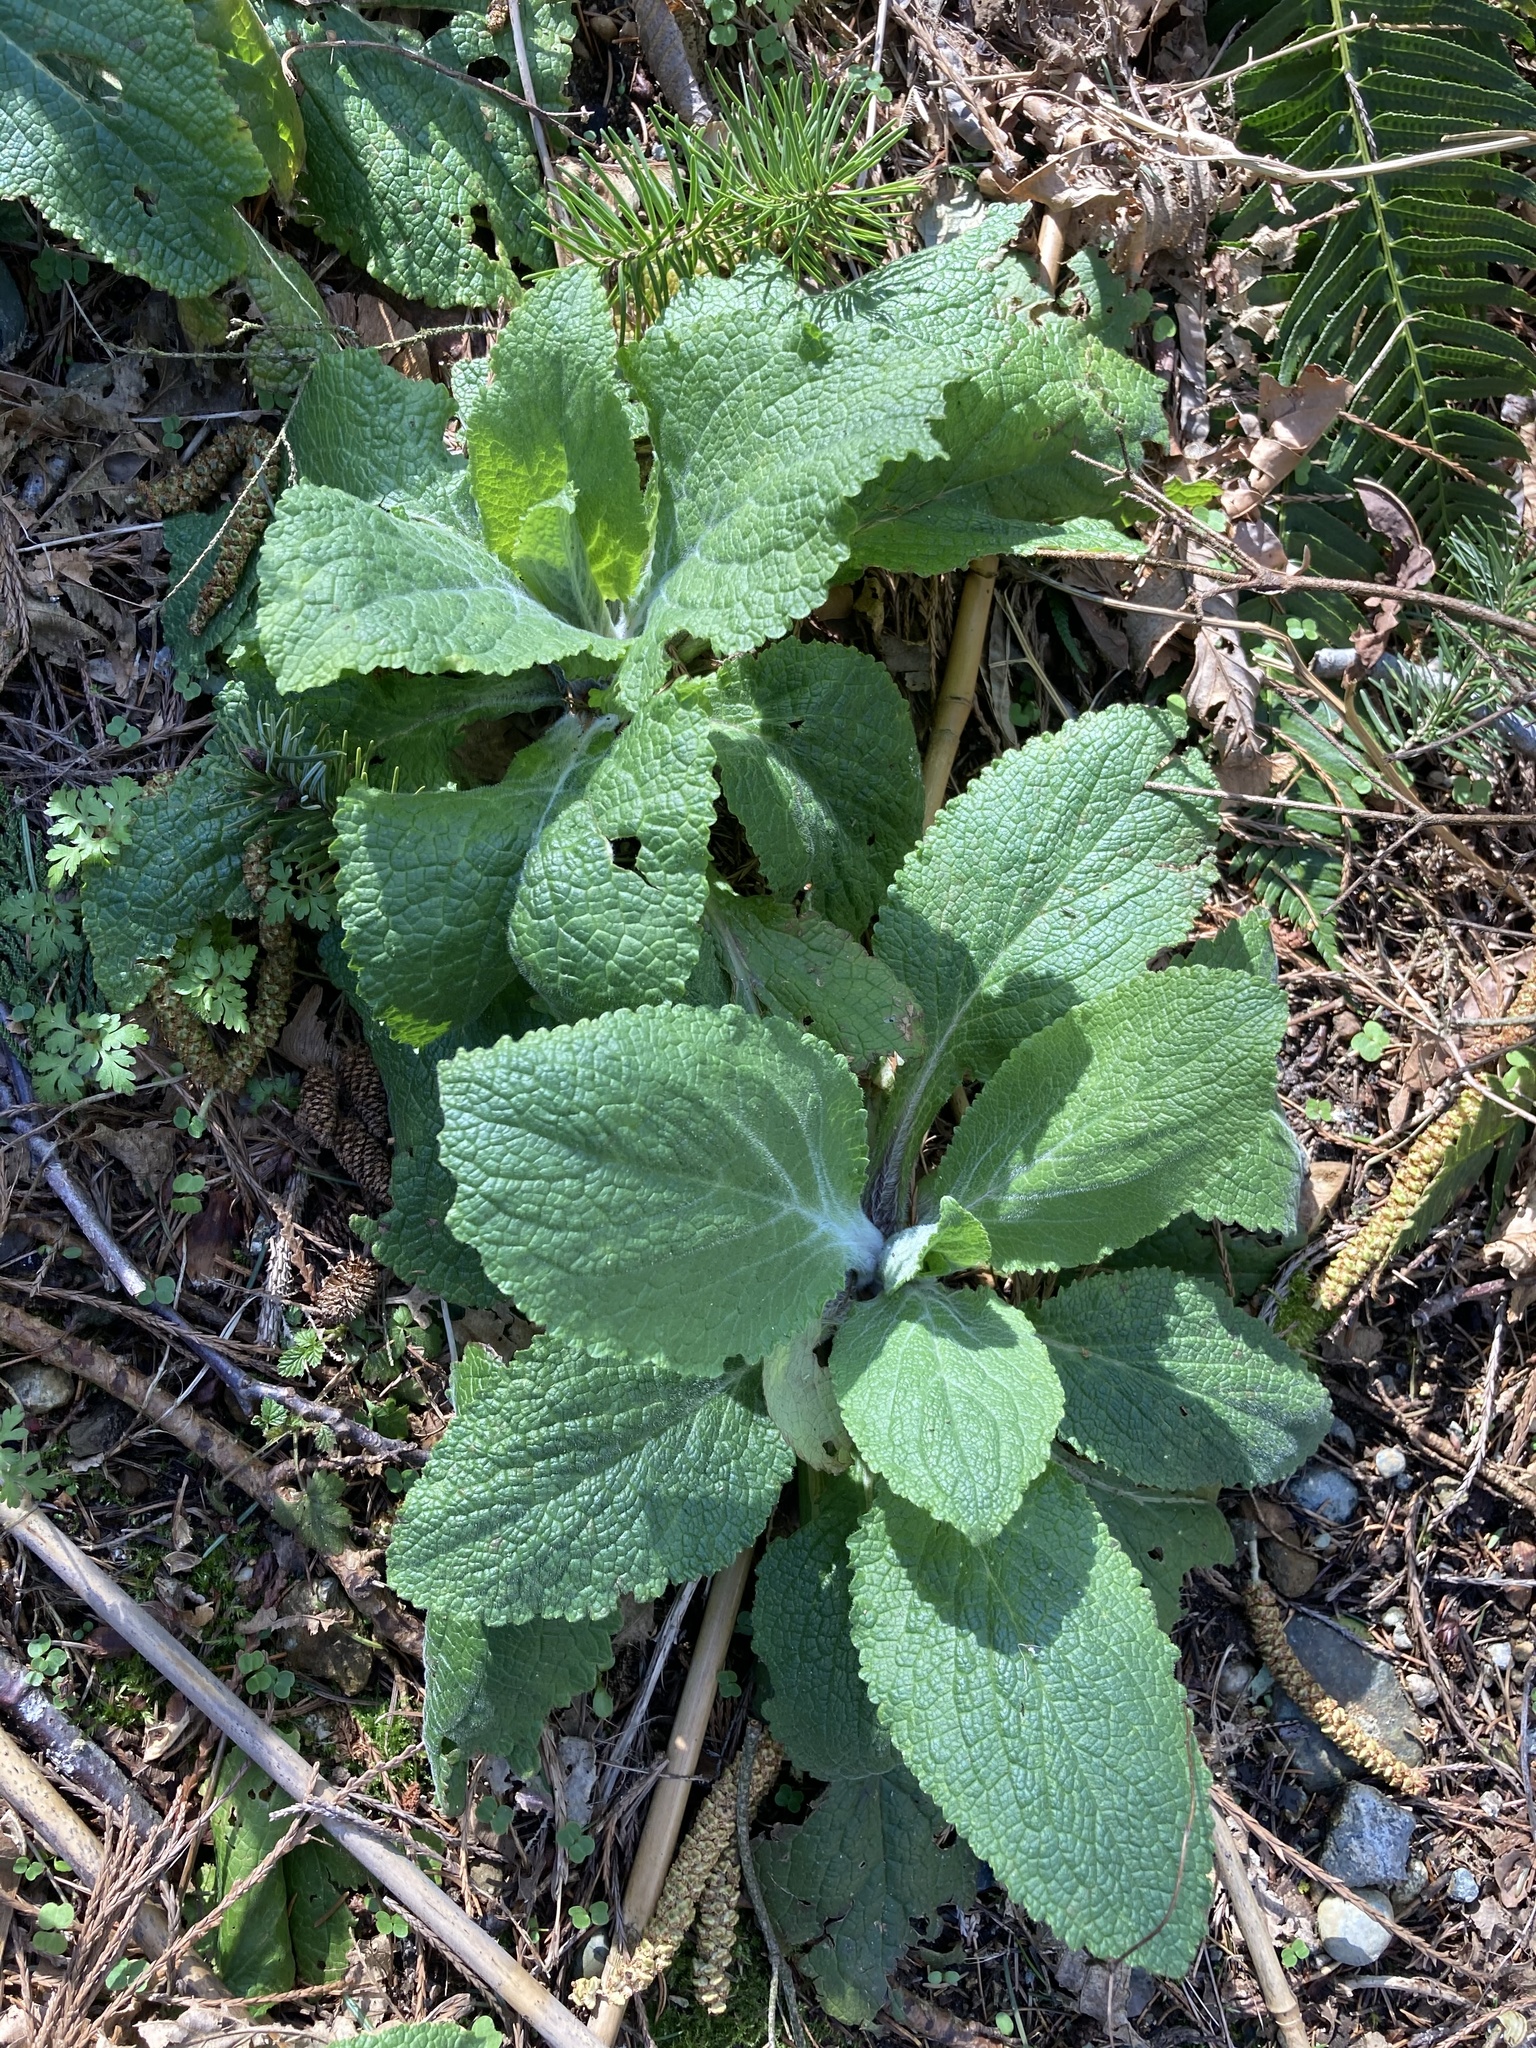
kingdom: Plantae
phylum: Tracheophyta
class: Magnoliopsida
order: Lamiales
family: Plantaginaceae
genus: Digitalis
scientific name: Digitalis purpurea
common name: Foxglove
